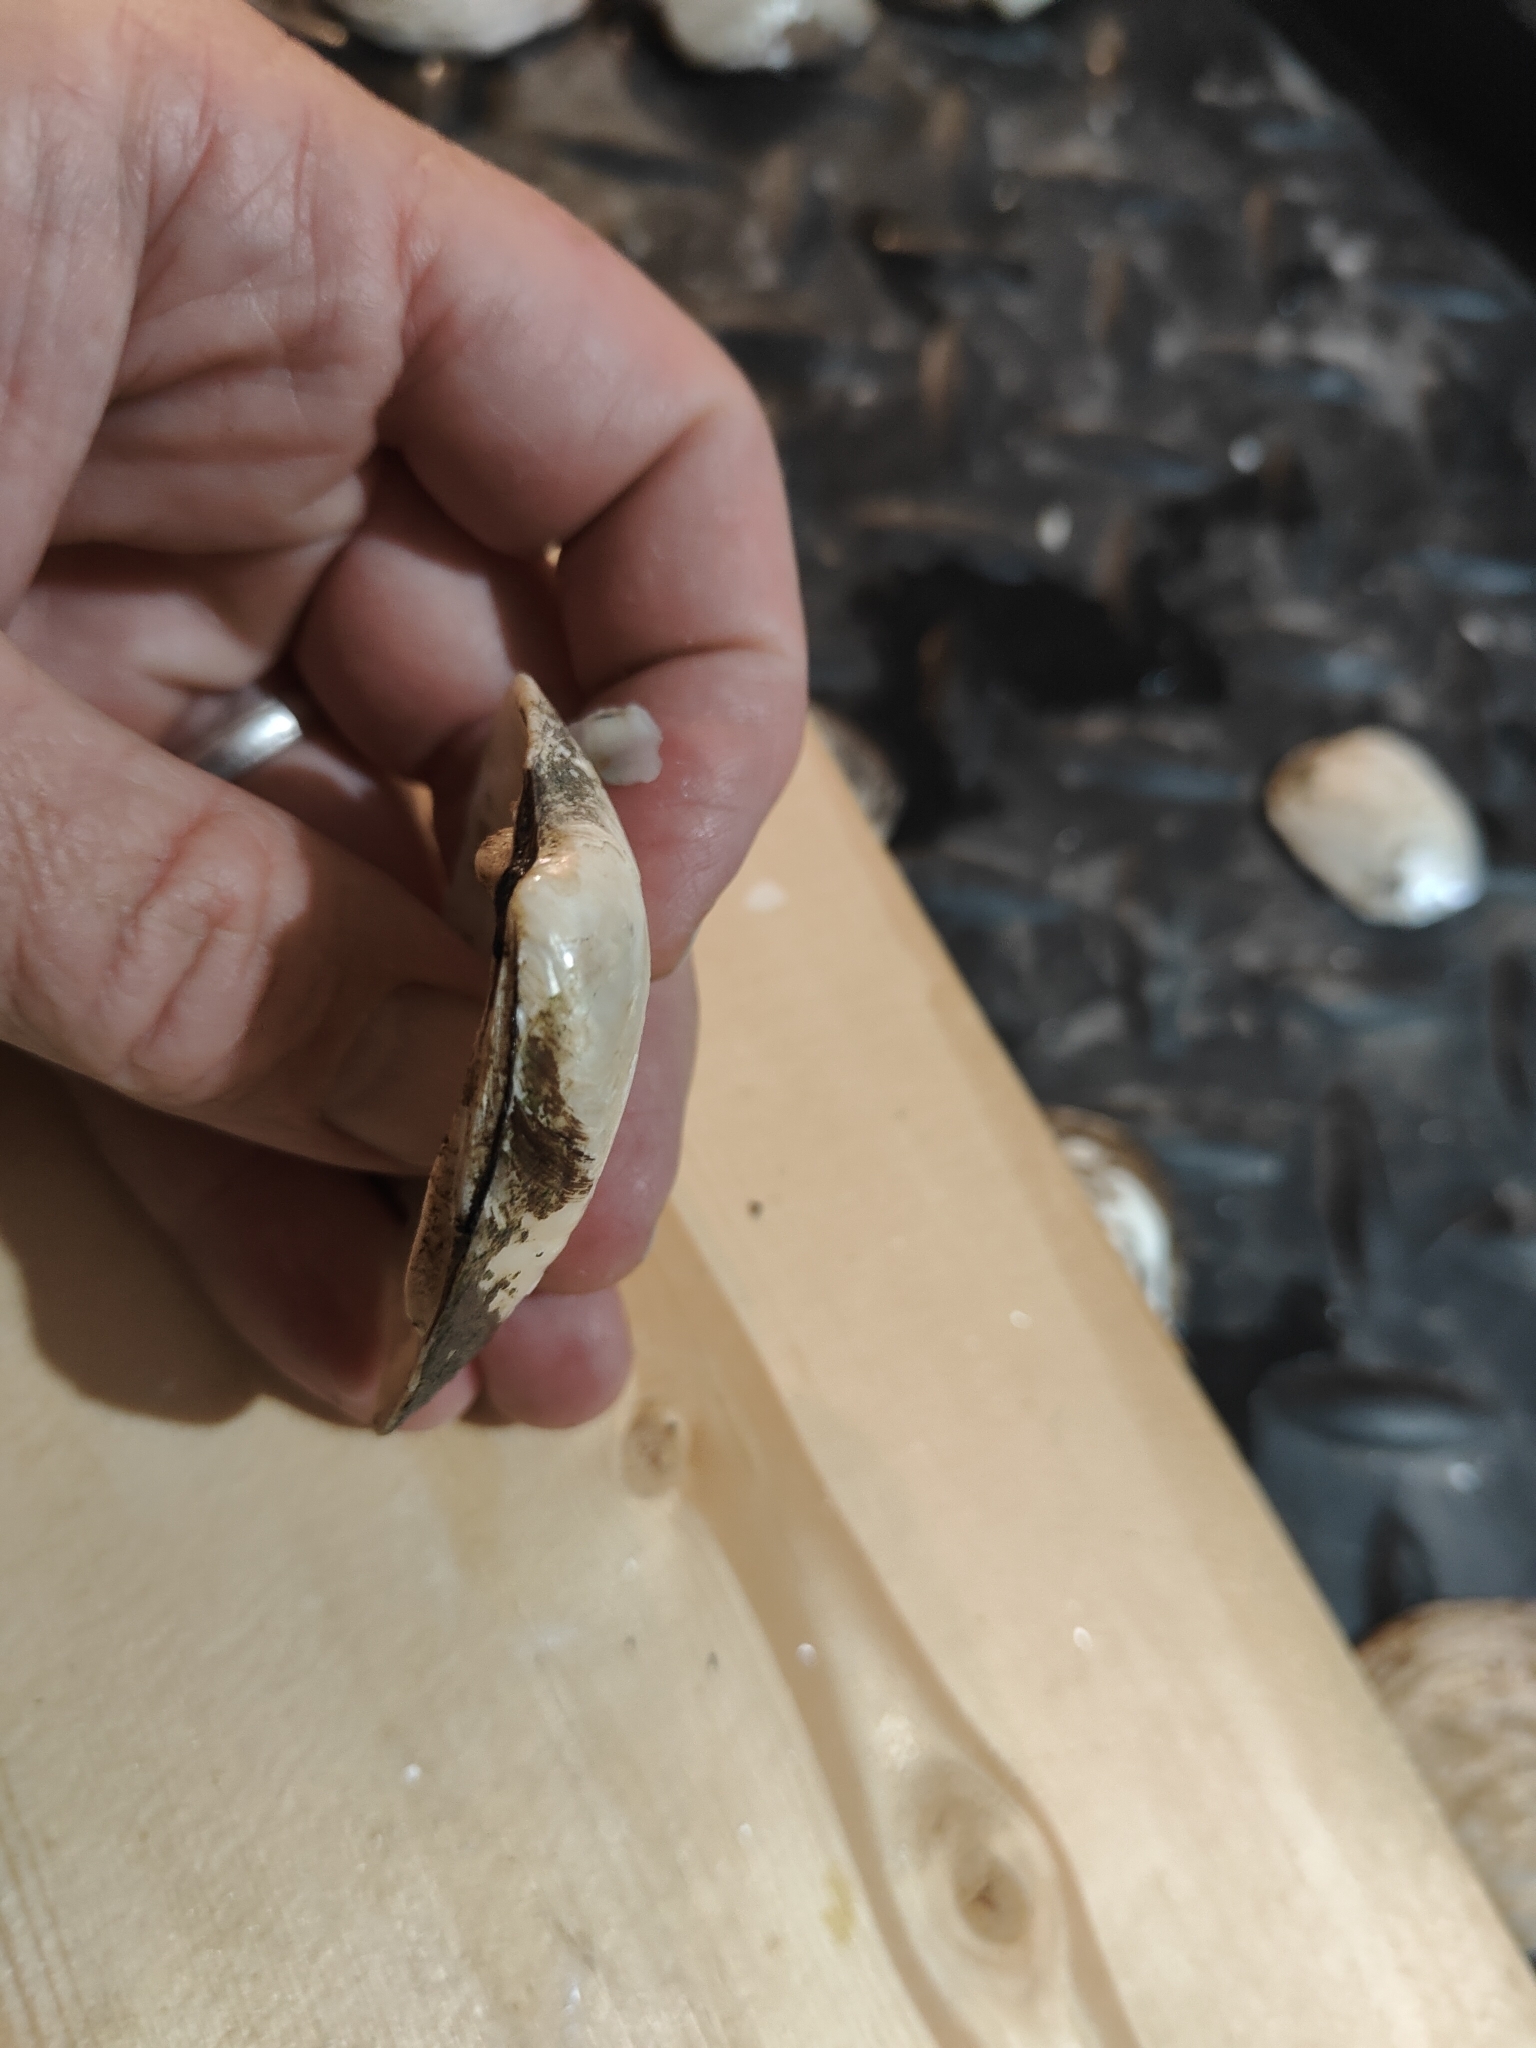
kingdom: Animalia
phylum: Mollusca
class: Bivalvia
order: Unionida
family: Unionidae
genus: Fusconaia
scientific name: Fusconaia flava
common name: Wabash pigtoe
